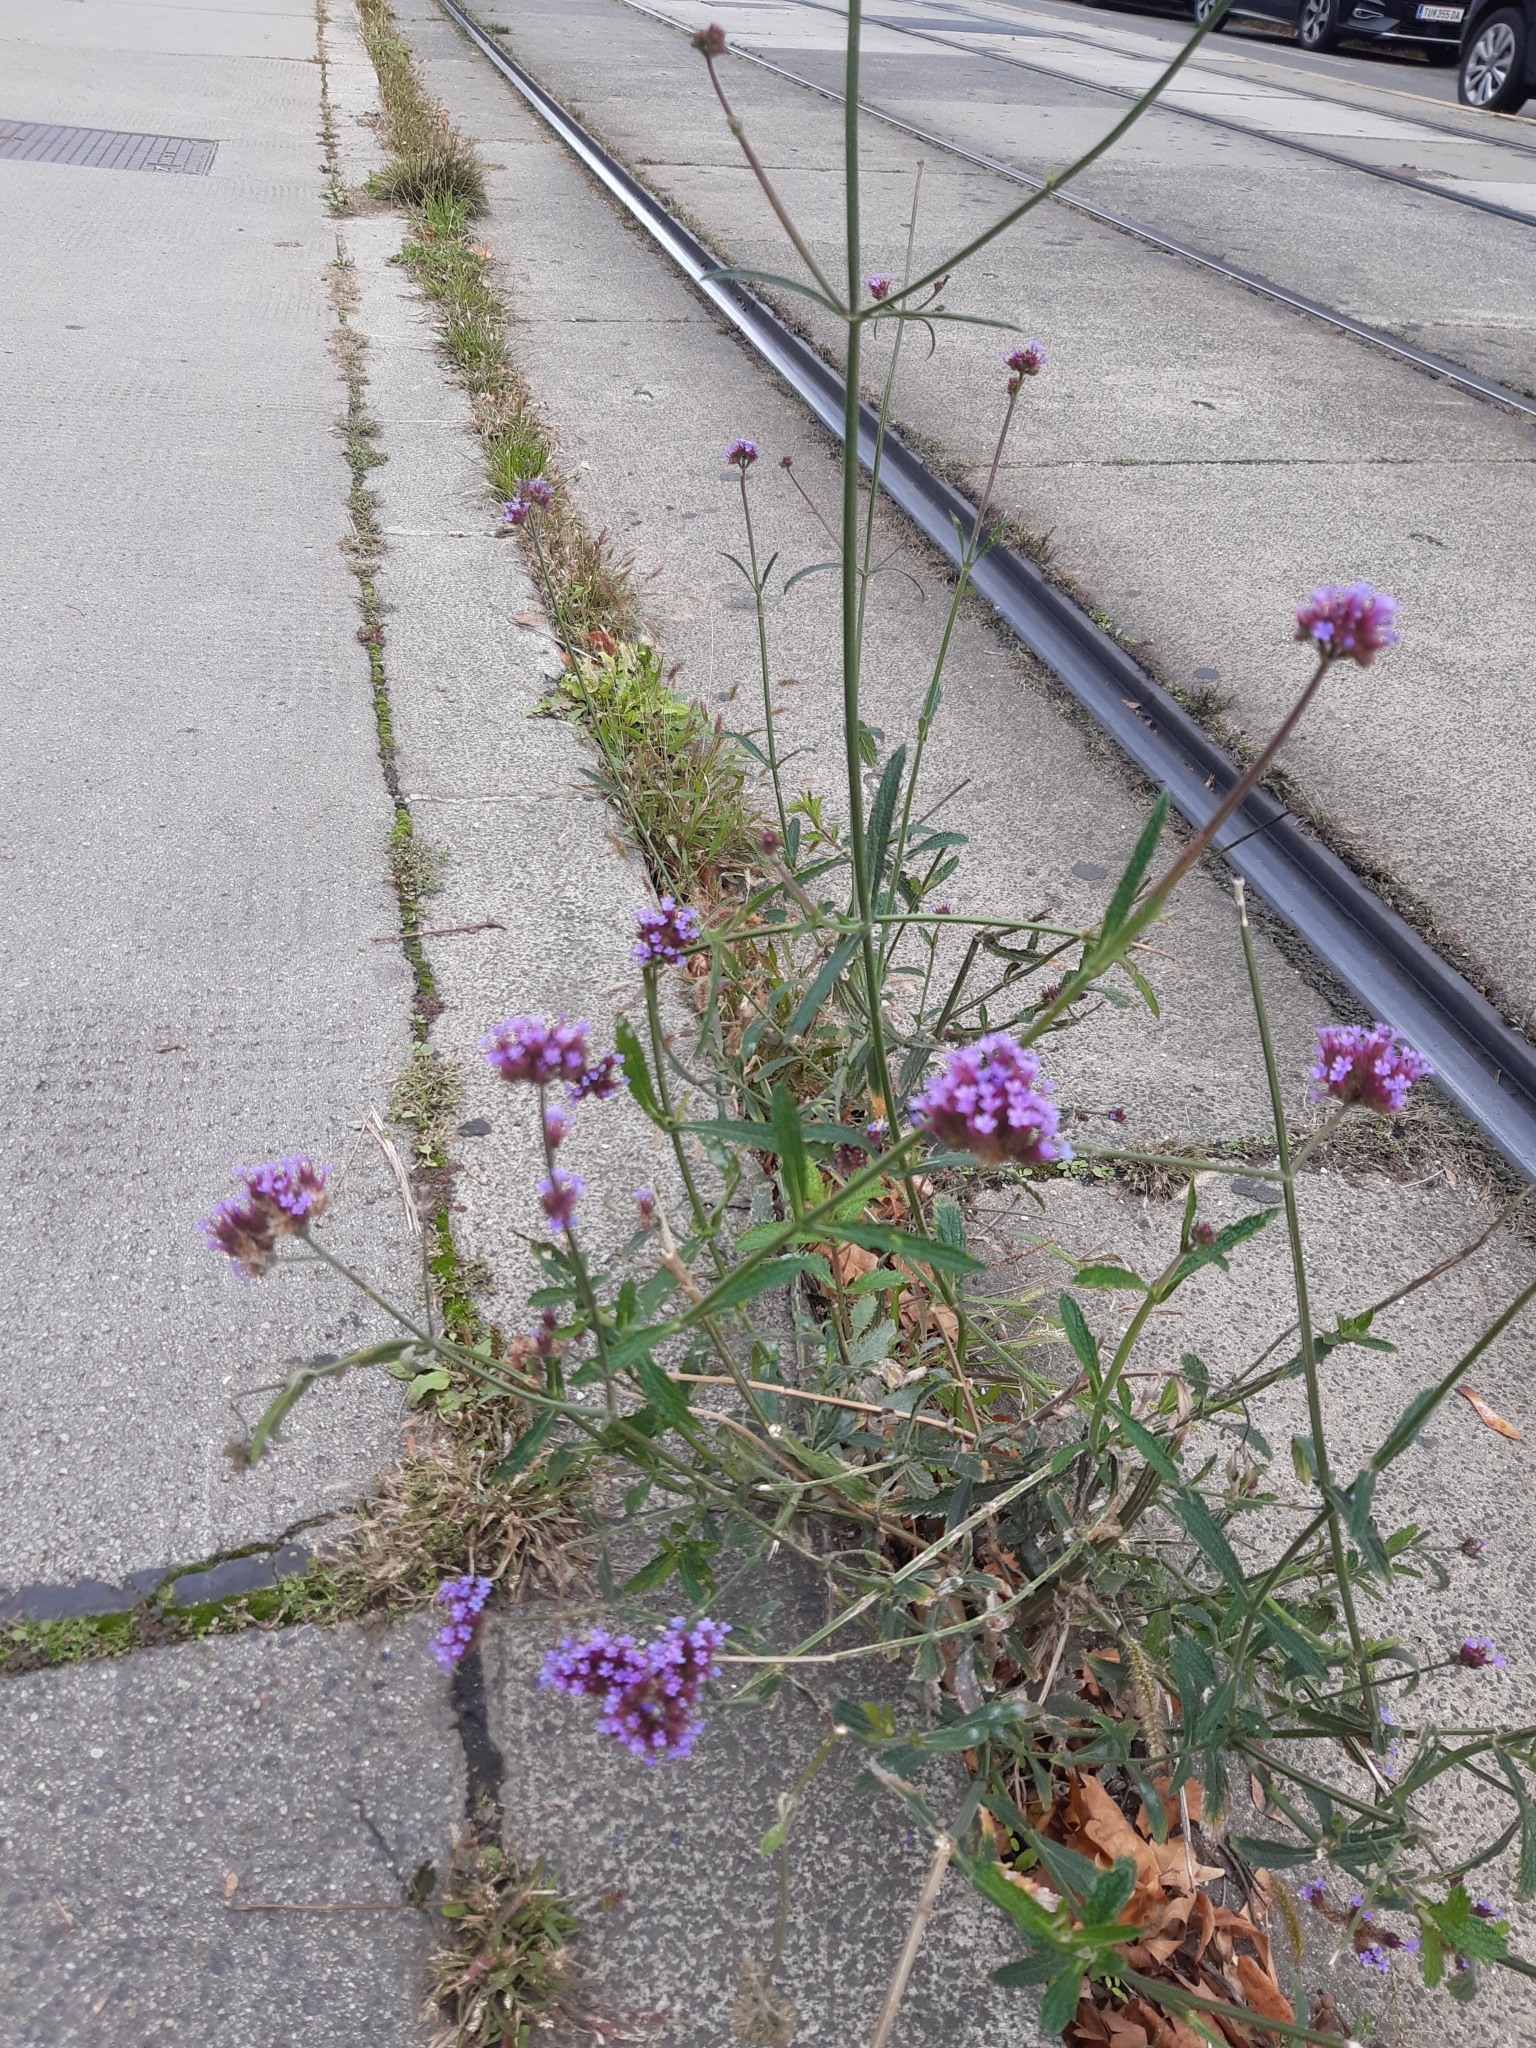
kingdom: Plantae
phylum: Tracheophyta
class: Magnoliopsida
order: Lamiales
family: Verbenaceae
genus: Verbena
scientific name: Verbena bonariensis
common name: Purpletop vervain
